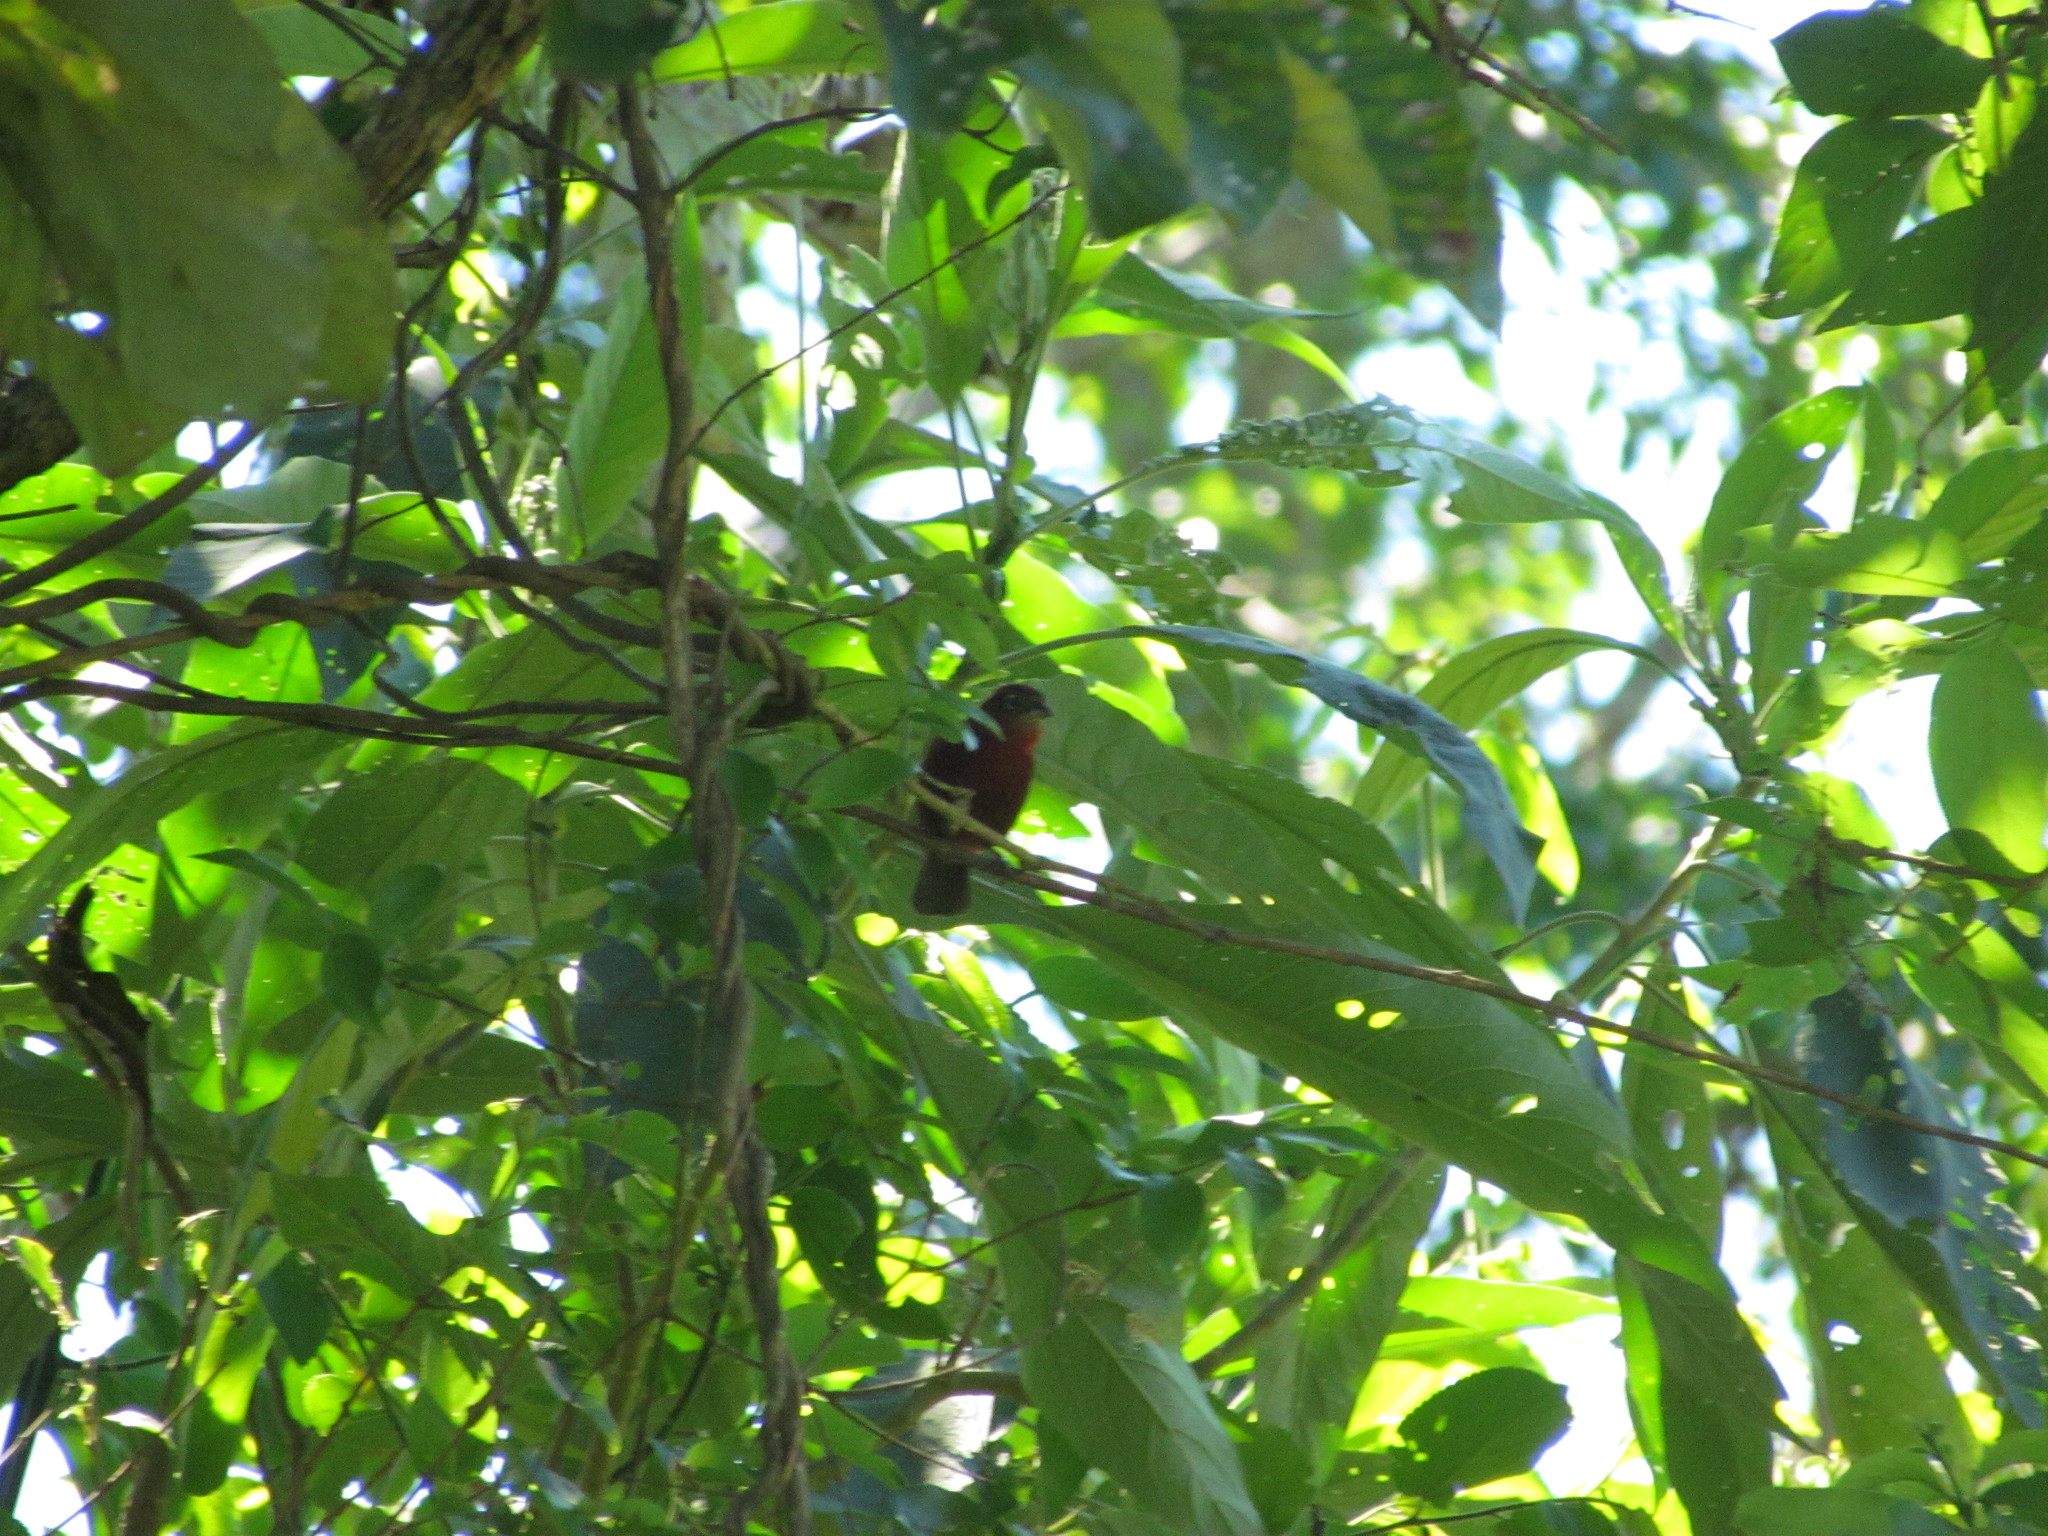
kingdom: Animalia
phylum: Chordata
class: Aves
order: Passeriformes
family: Thraupidae
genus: Coryphospingus
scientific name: Coryphospingus cucullatus
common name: Red pileated finch
